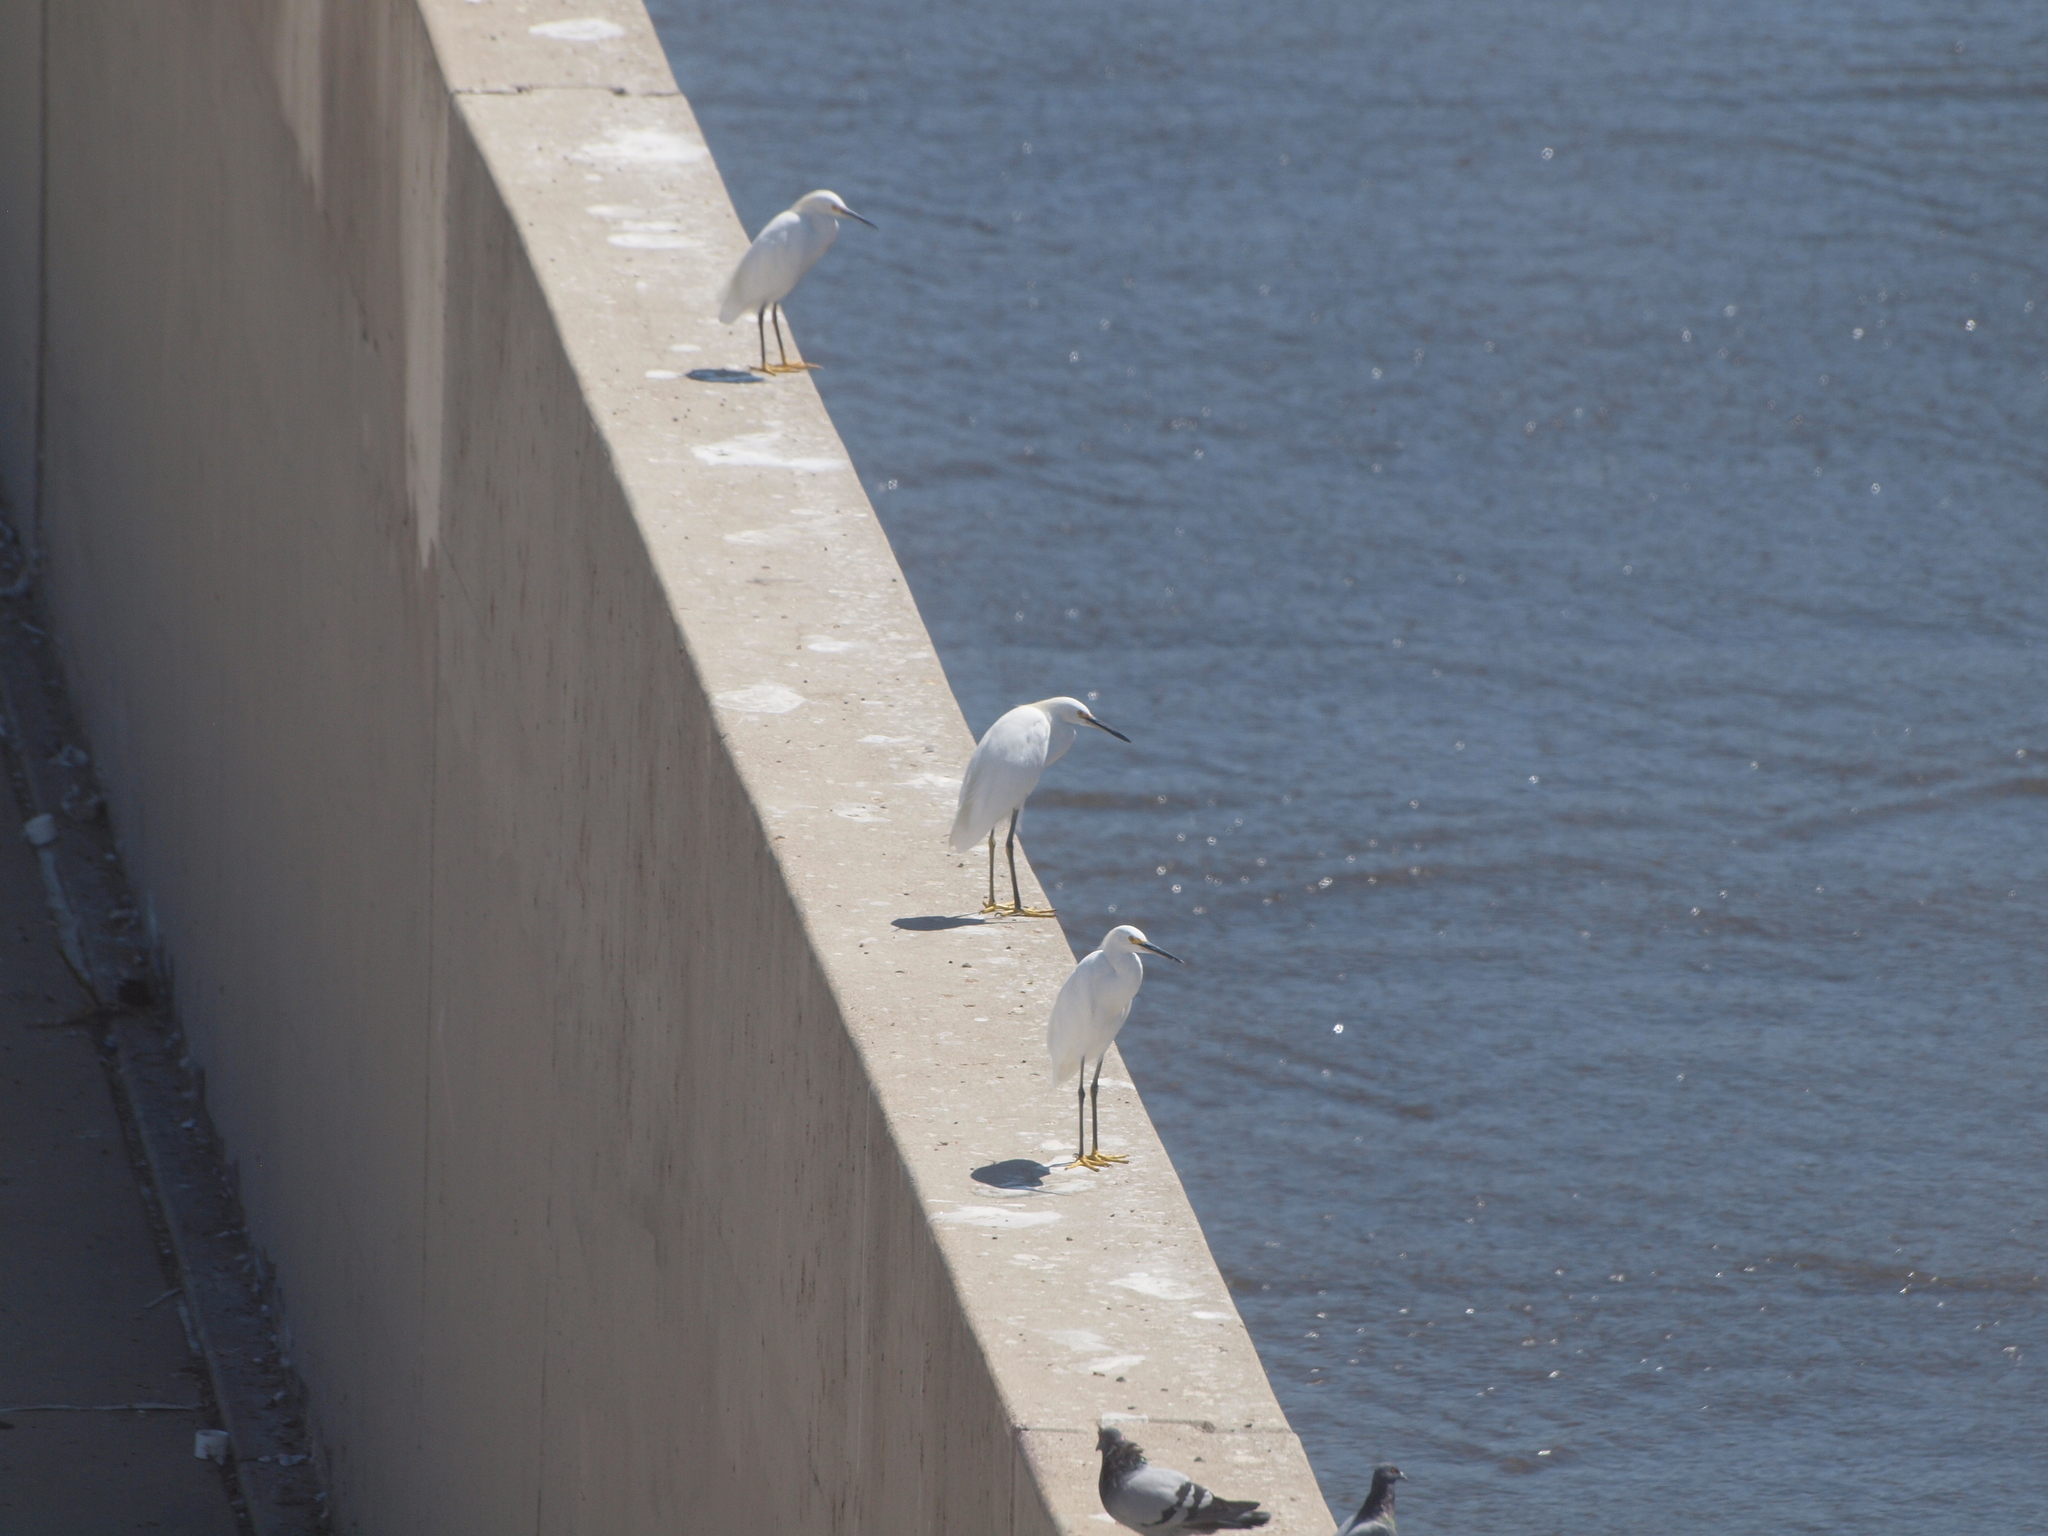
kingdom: Animalia
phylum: Chordata
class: Aves
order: Pelecaniformes
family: Ardeidae
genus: Egretta
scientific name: Egretta thula
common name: Snowy egret
